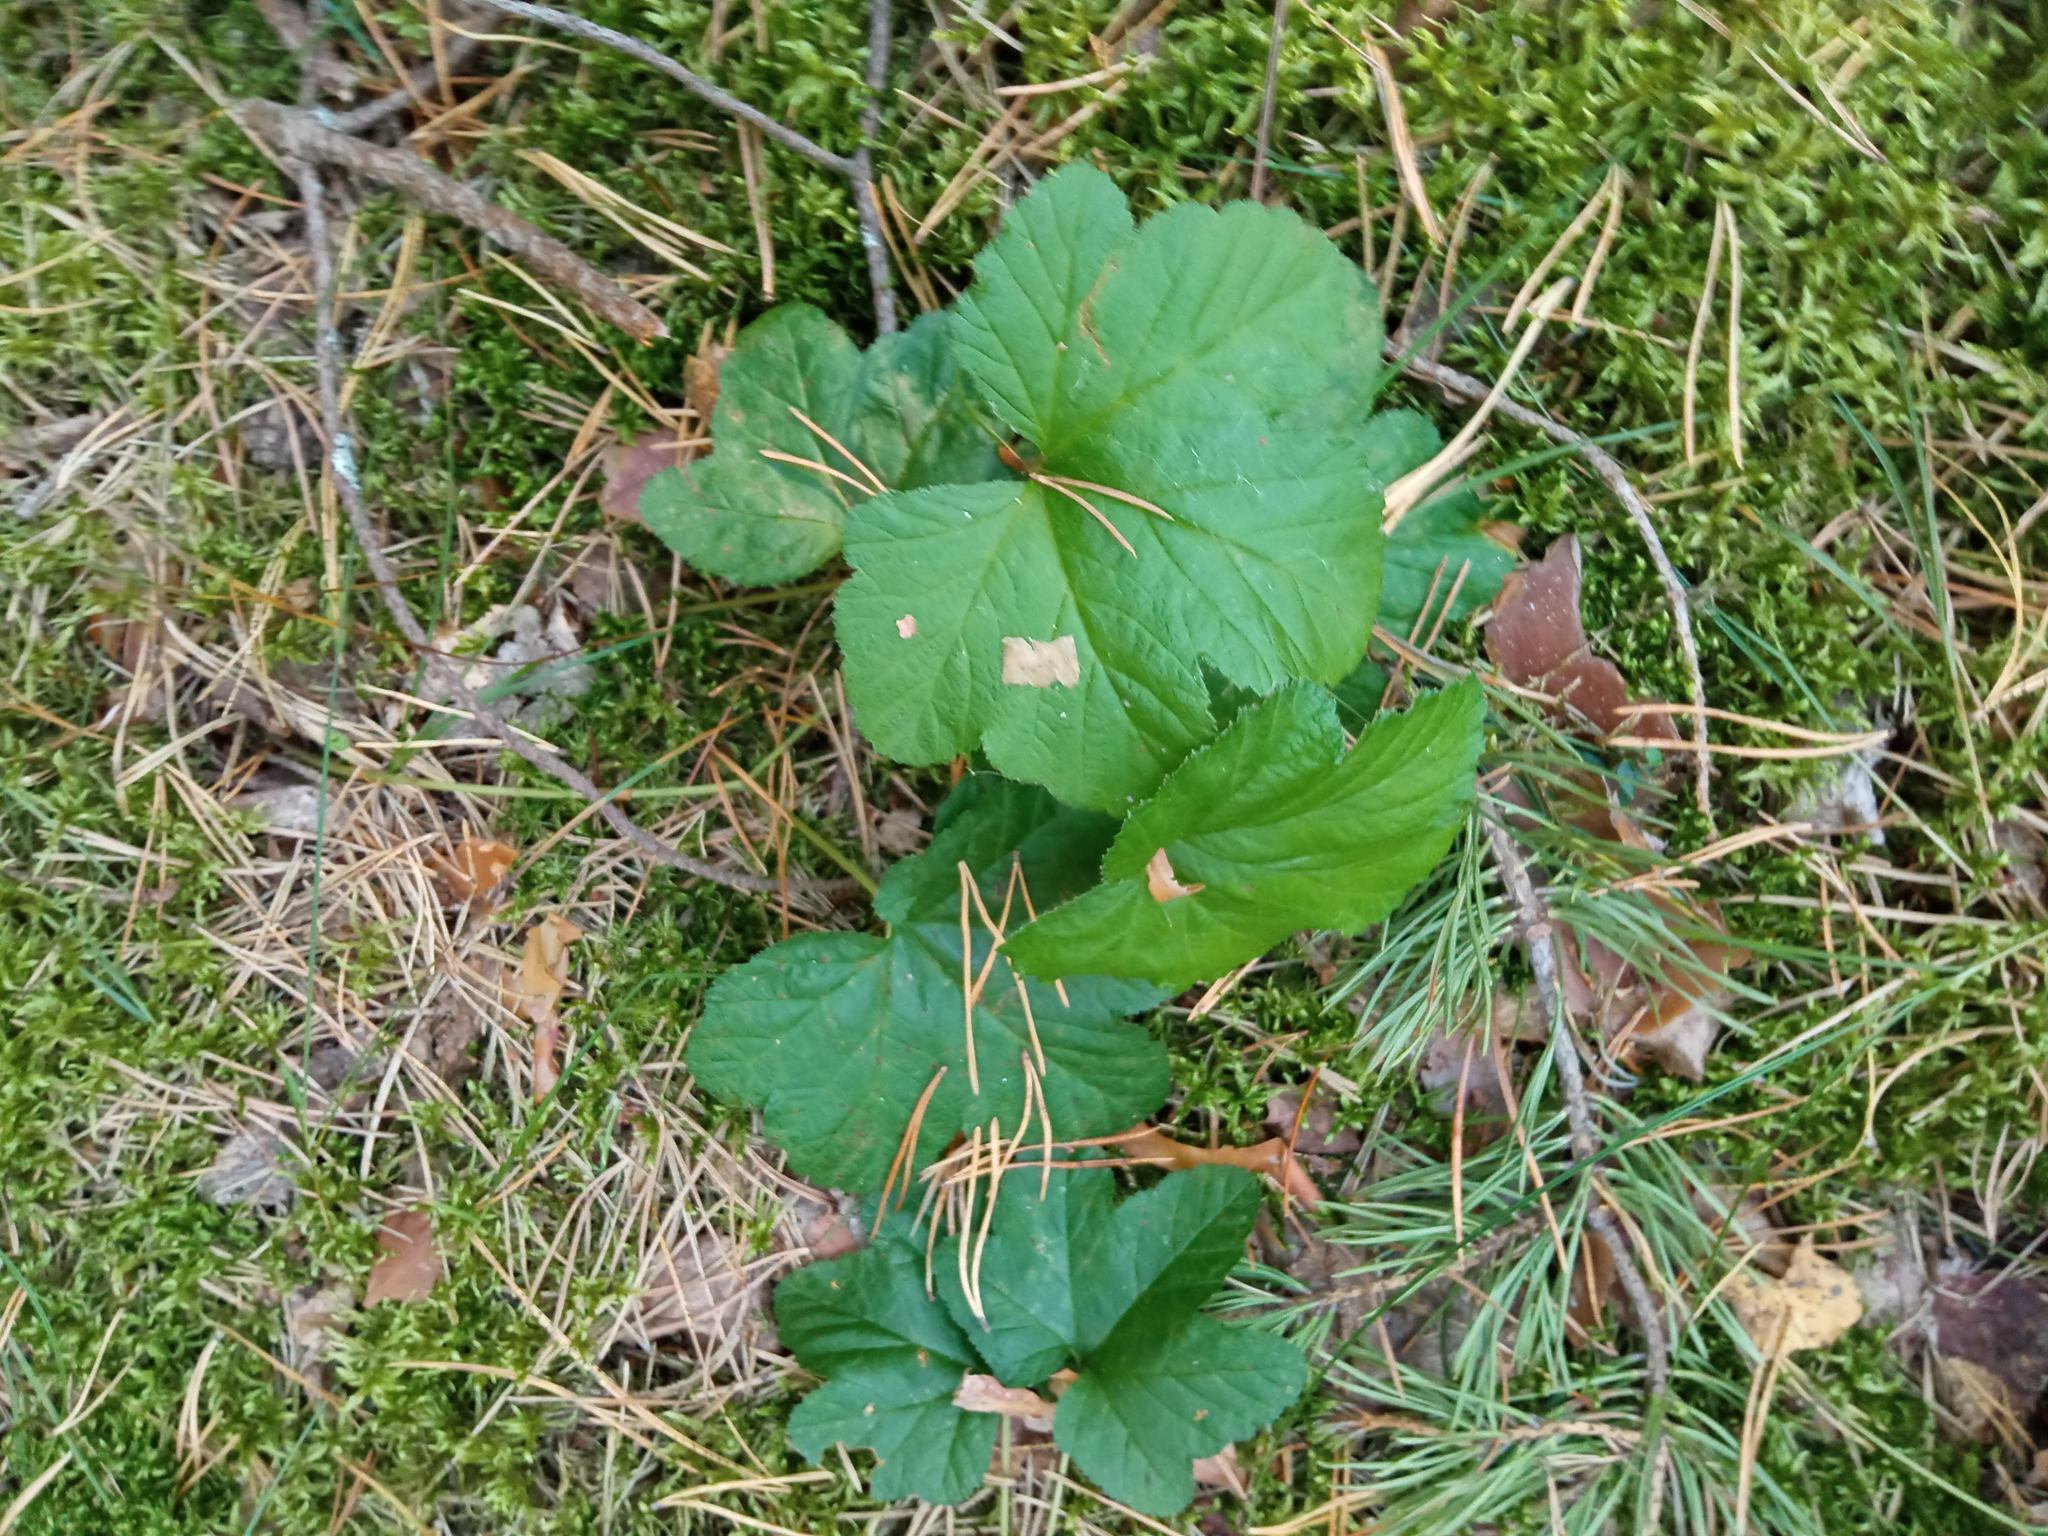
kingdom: Plantae
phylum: Tracheophyta
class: Magnoliopsida
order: Rosales
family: Rosaceae
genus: Rubus
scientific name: Rubus chamaemorus
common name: Cloudberry
